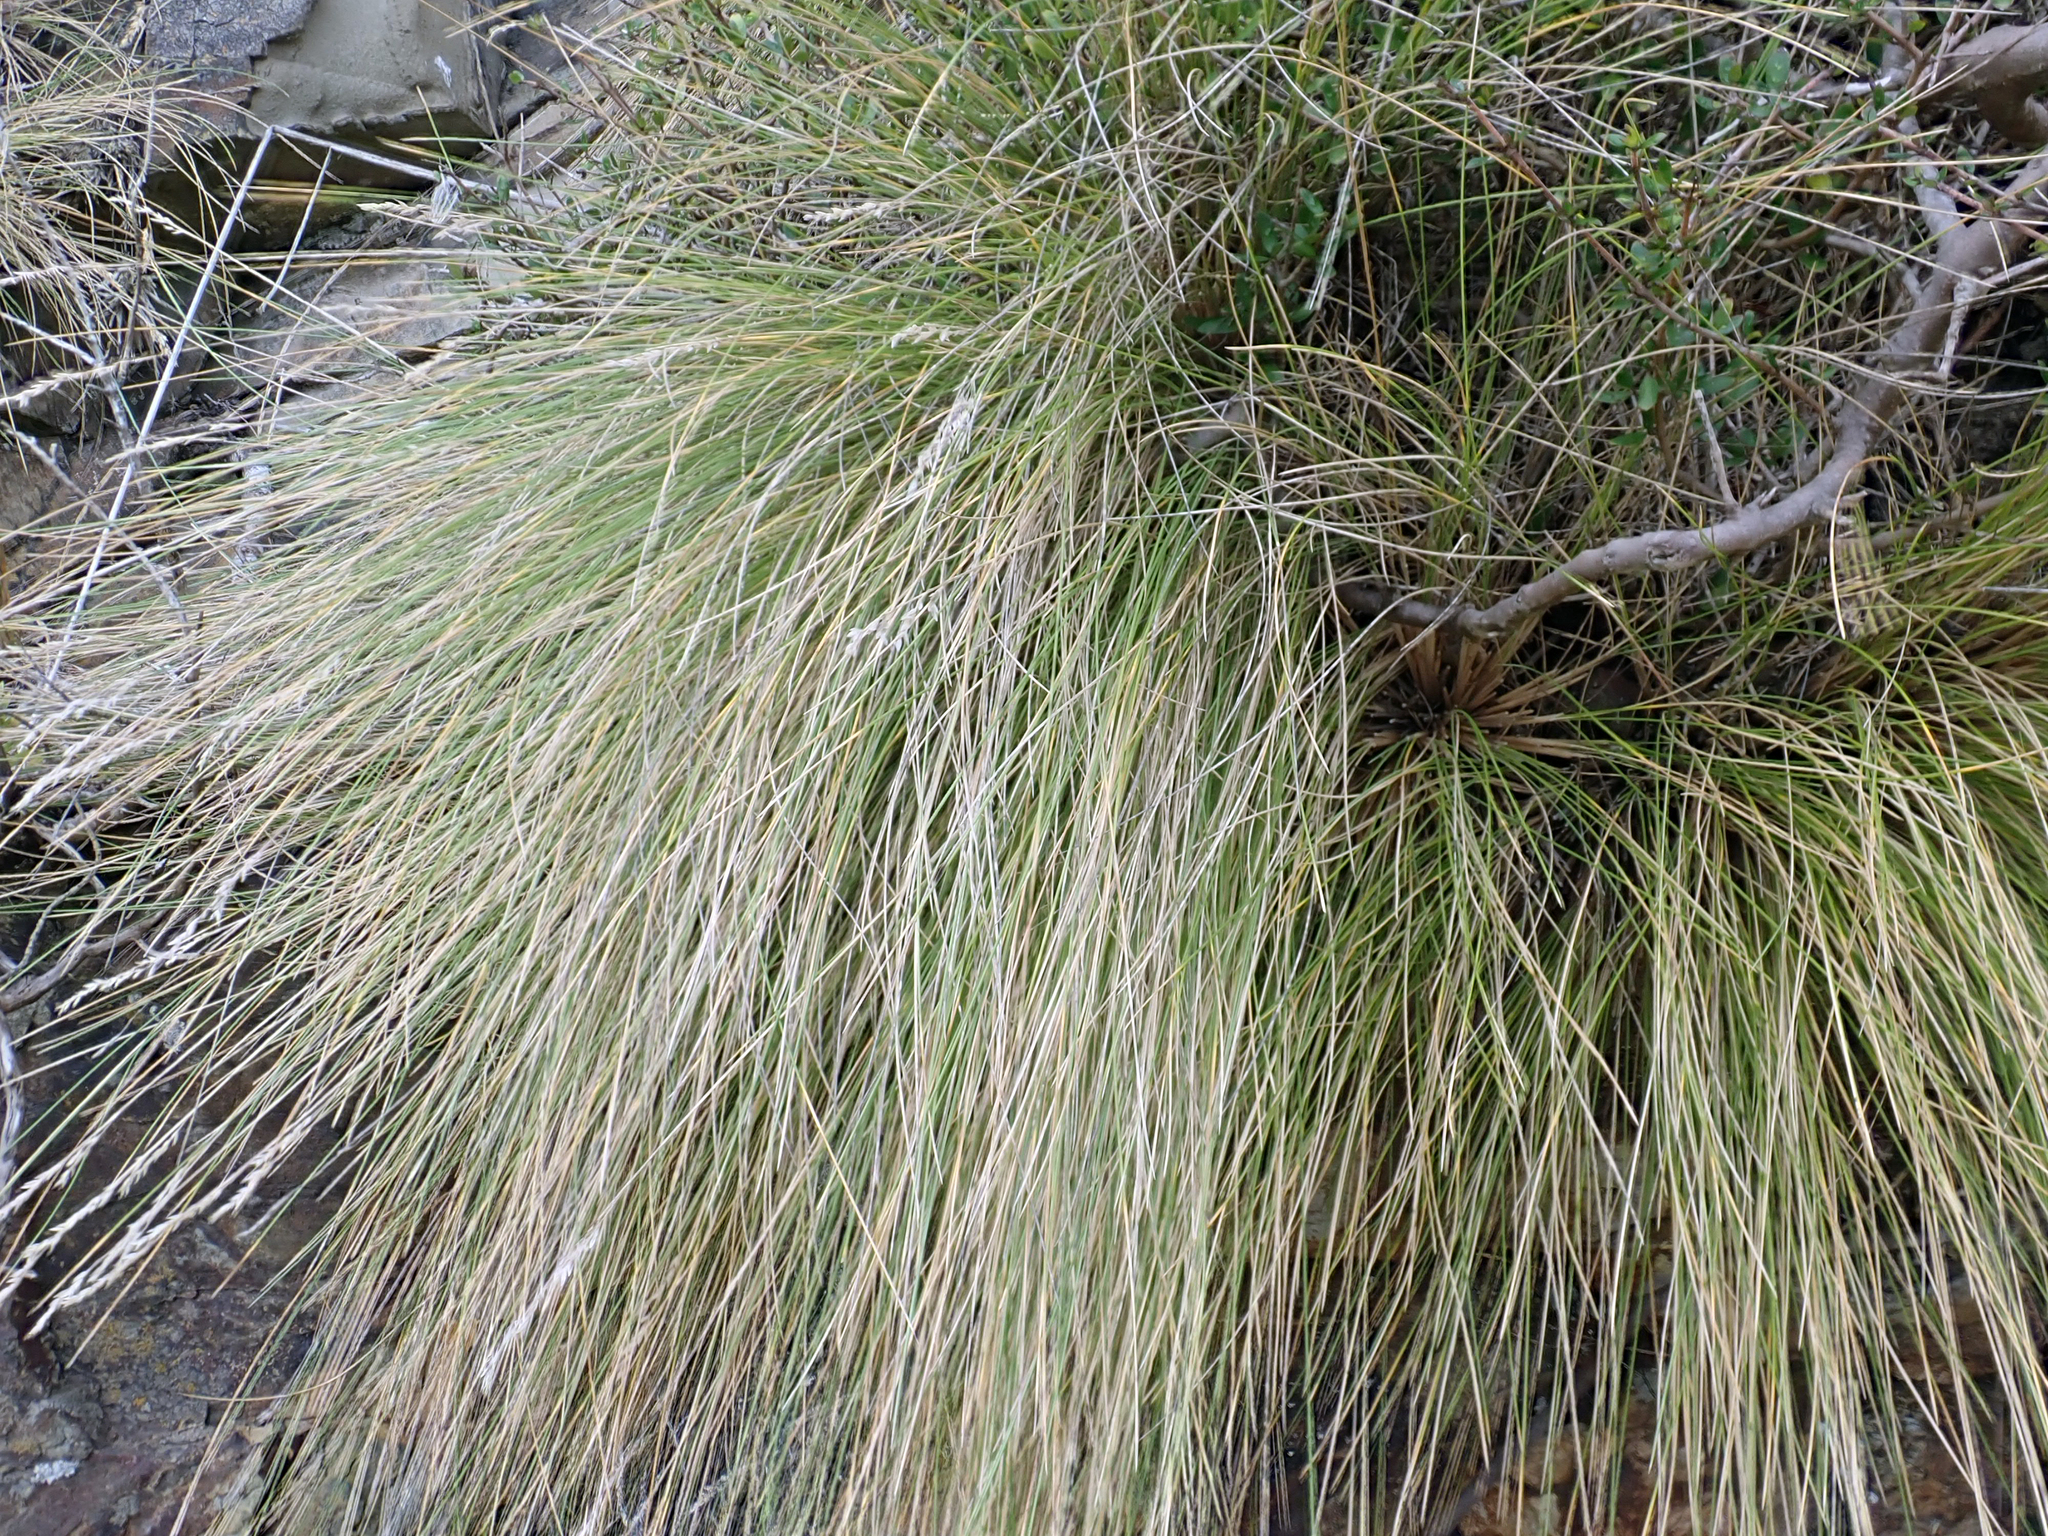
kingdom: Plantae
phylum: Tracheophyta
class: Liliopsida
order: Poales
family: Poaceae
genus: Poa
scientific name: Poa astonii
